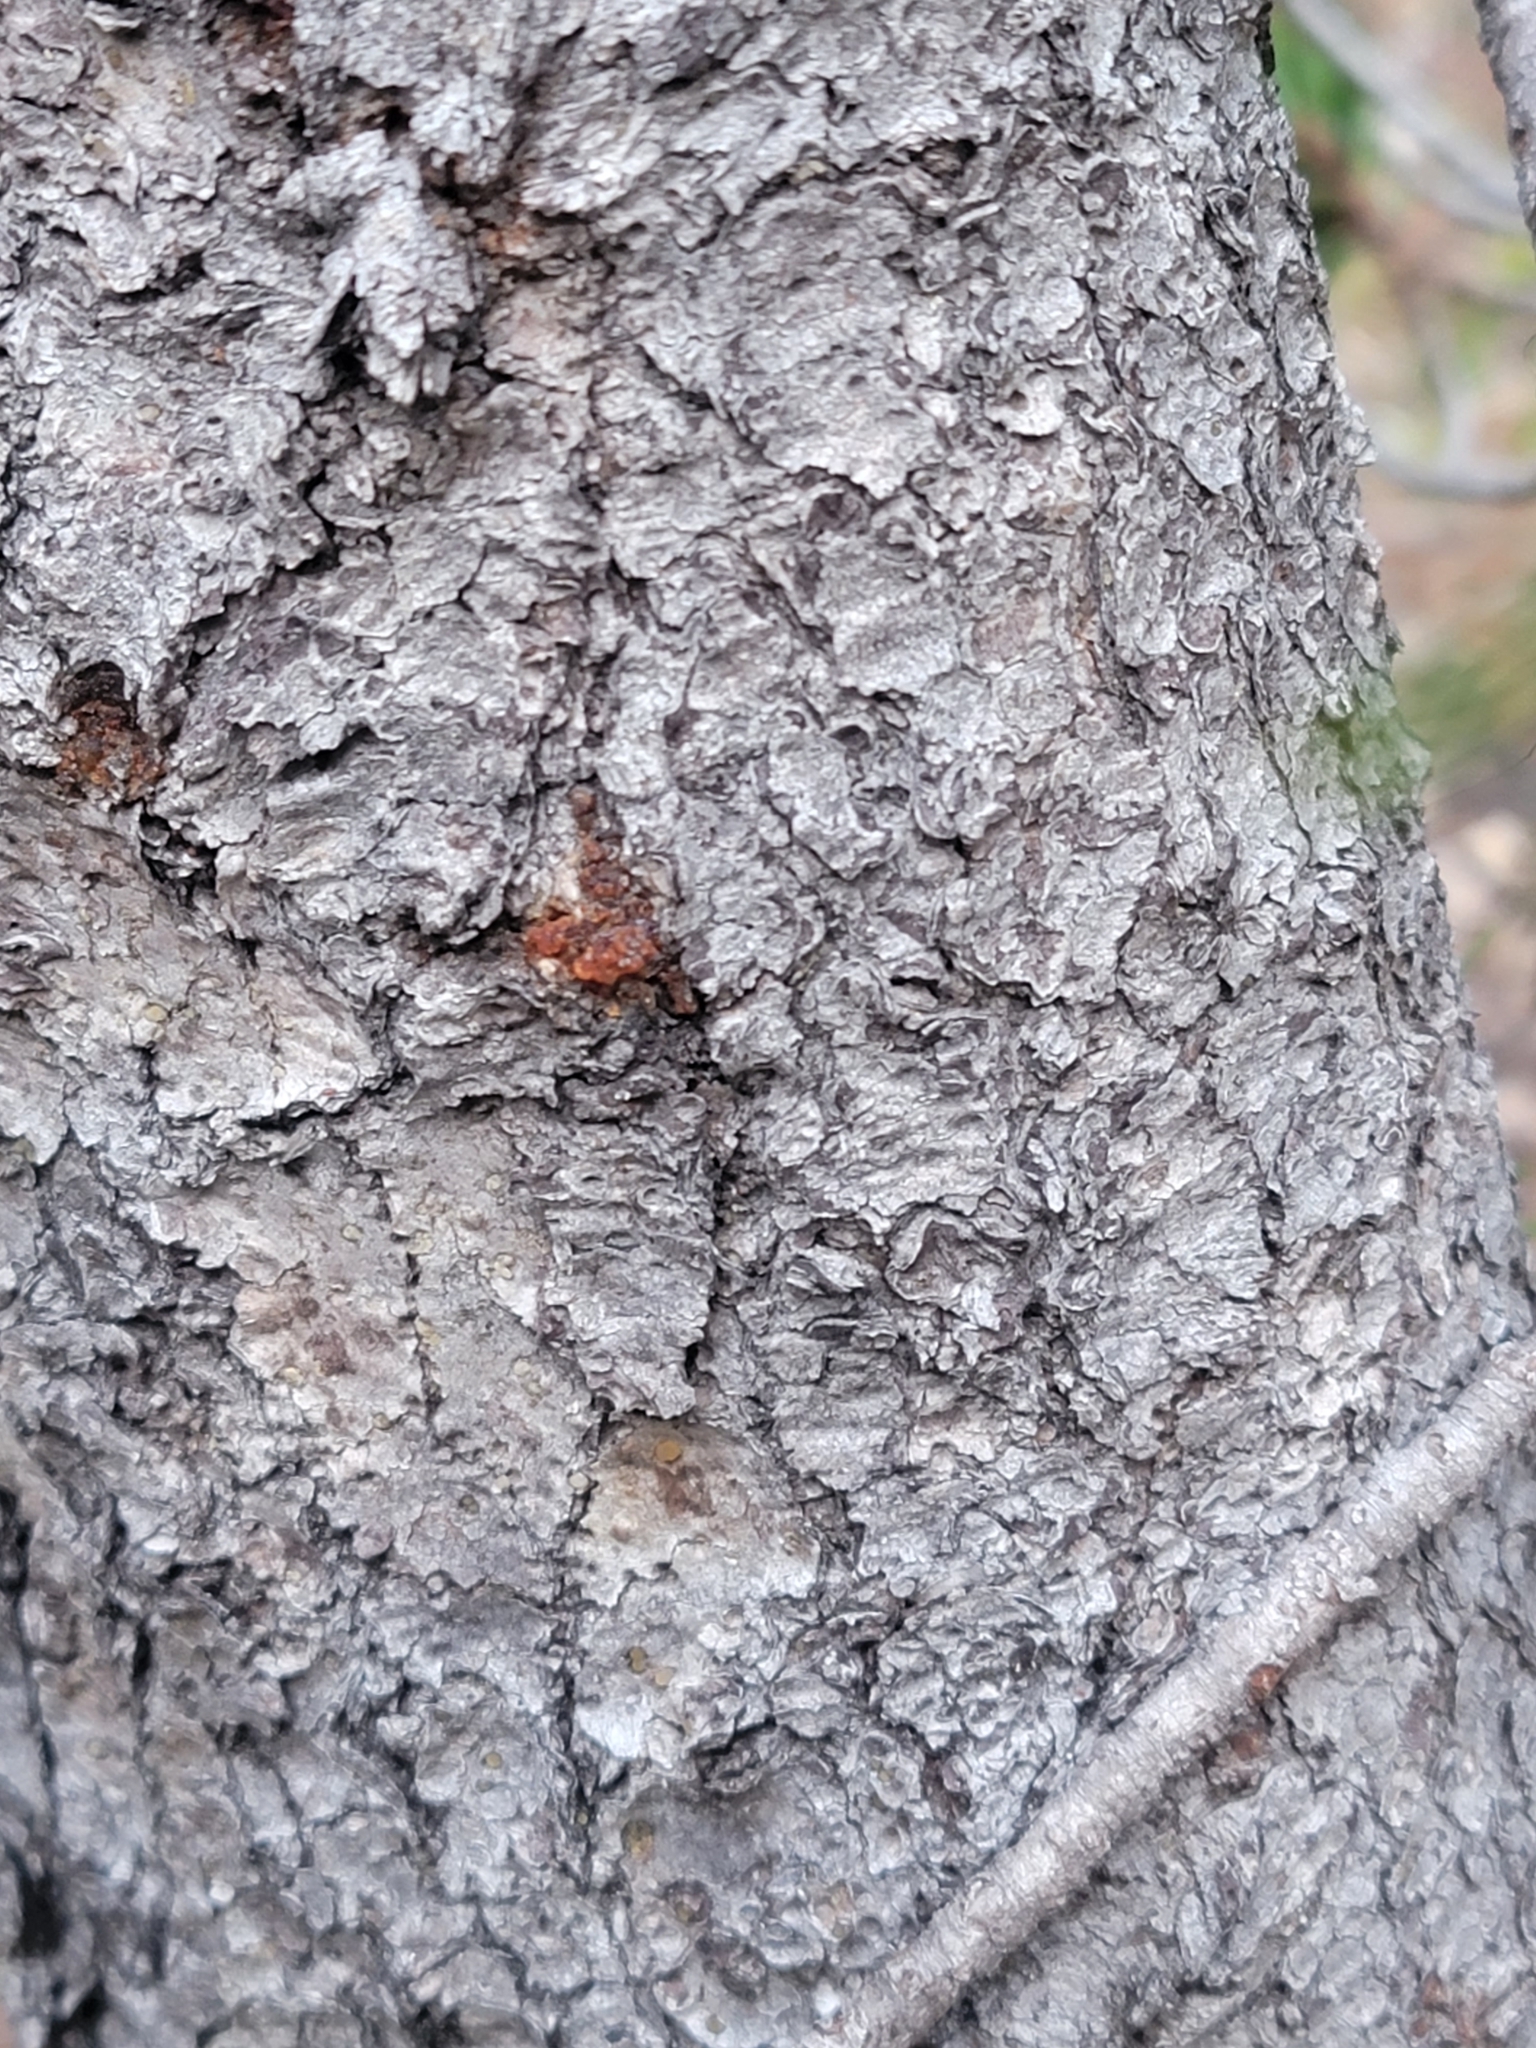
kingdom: Plantae
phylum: Tracheophyta
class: Pinopsida
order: Pinales
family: Pinaceae
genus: Pinus
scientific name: Pinus contorta
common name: Lodgepole pine
